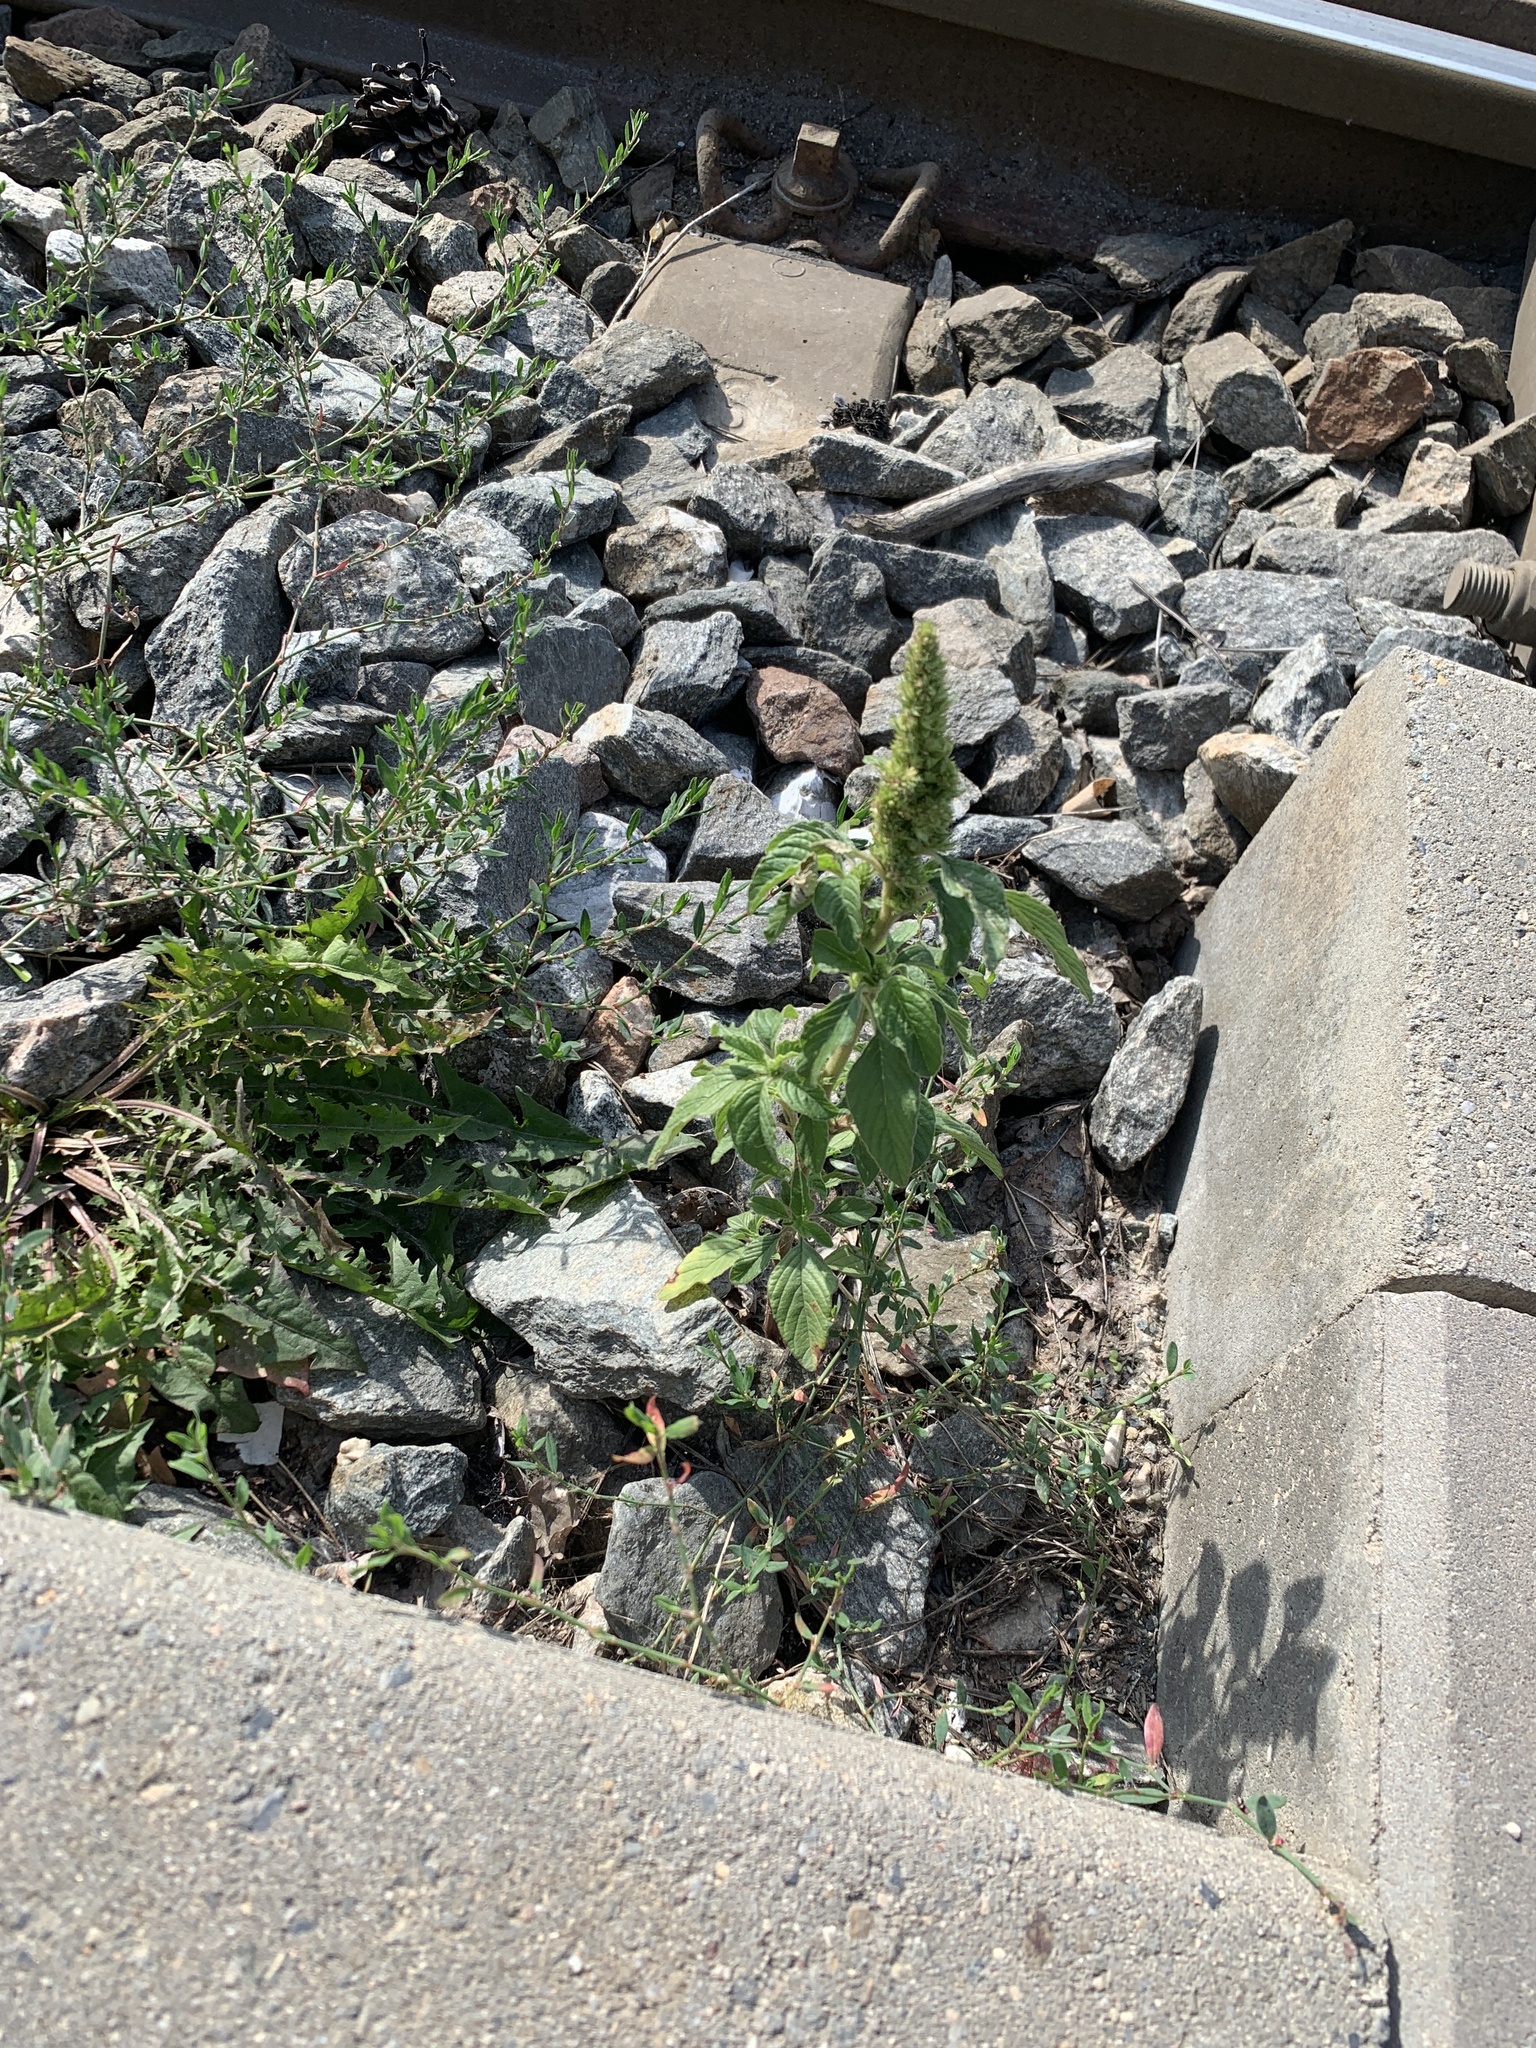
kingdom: Plantae
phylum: Tracheophyta
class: Magnoliopsida
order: Caryophyllales
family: Amaranthaceae
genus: Amaranthus
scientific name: Amaranthus retroflexus
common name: Redroot amaranth
